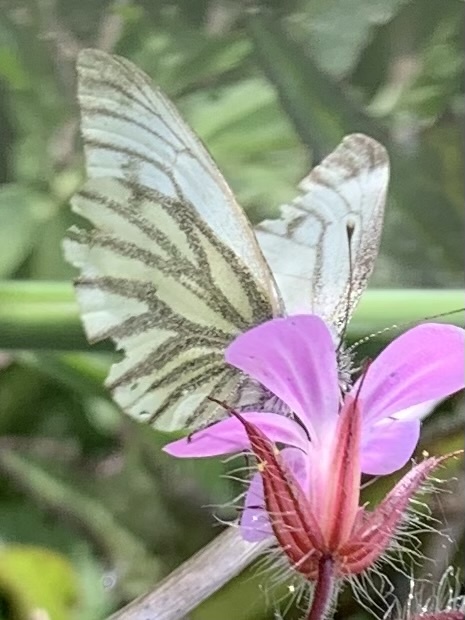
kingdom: Animalia
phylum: Arthropoda
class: Insecta
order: Lepidoptera
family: Pieridae
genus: Pieris
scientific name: Pieris napi
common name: Green-veined white
